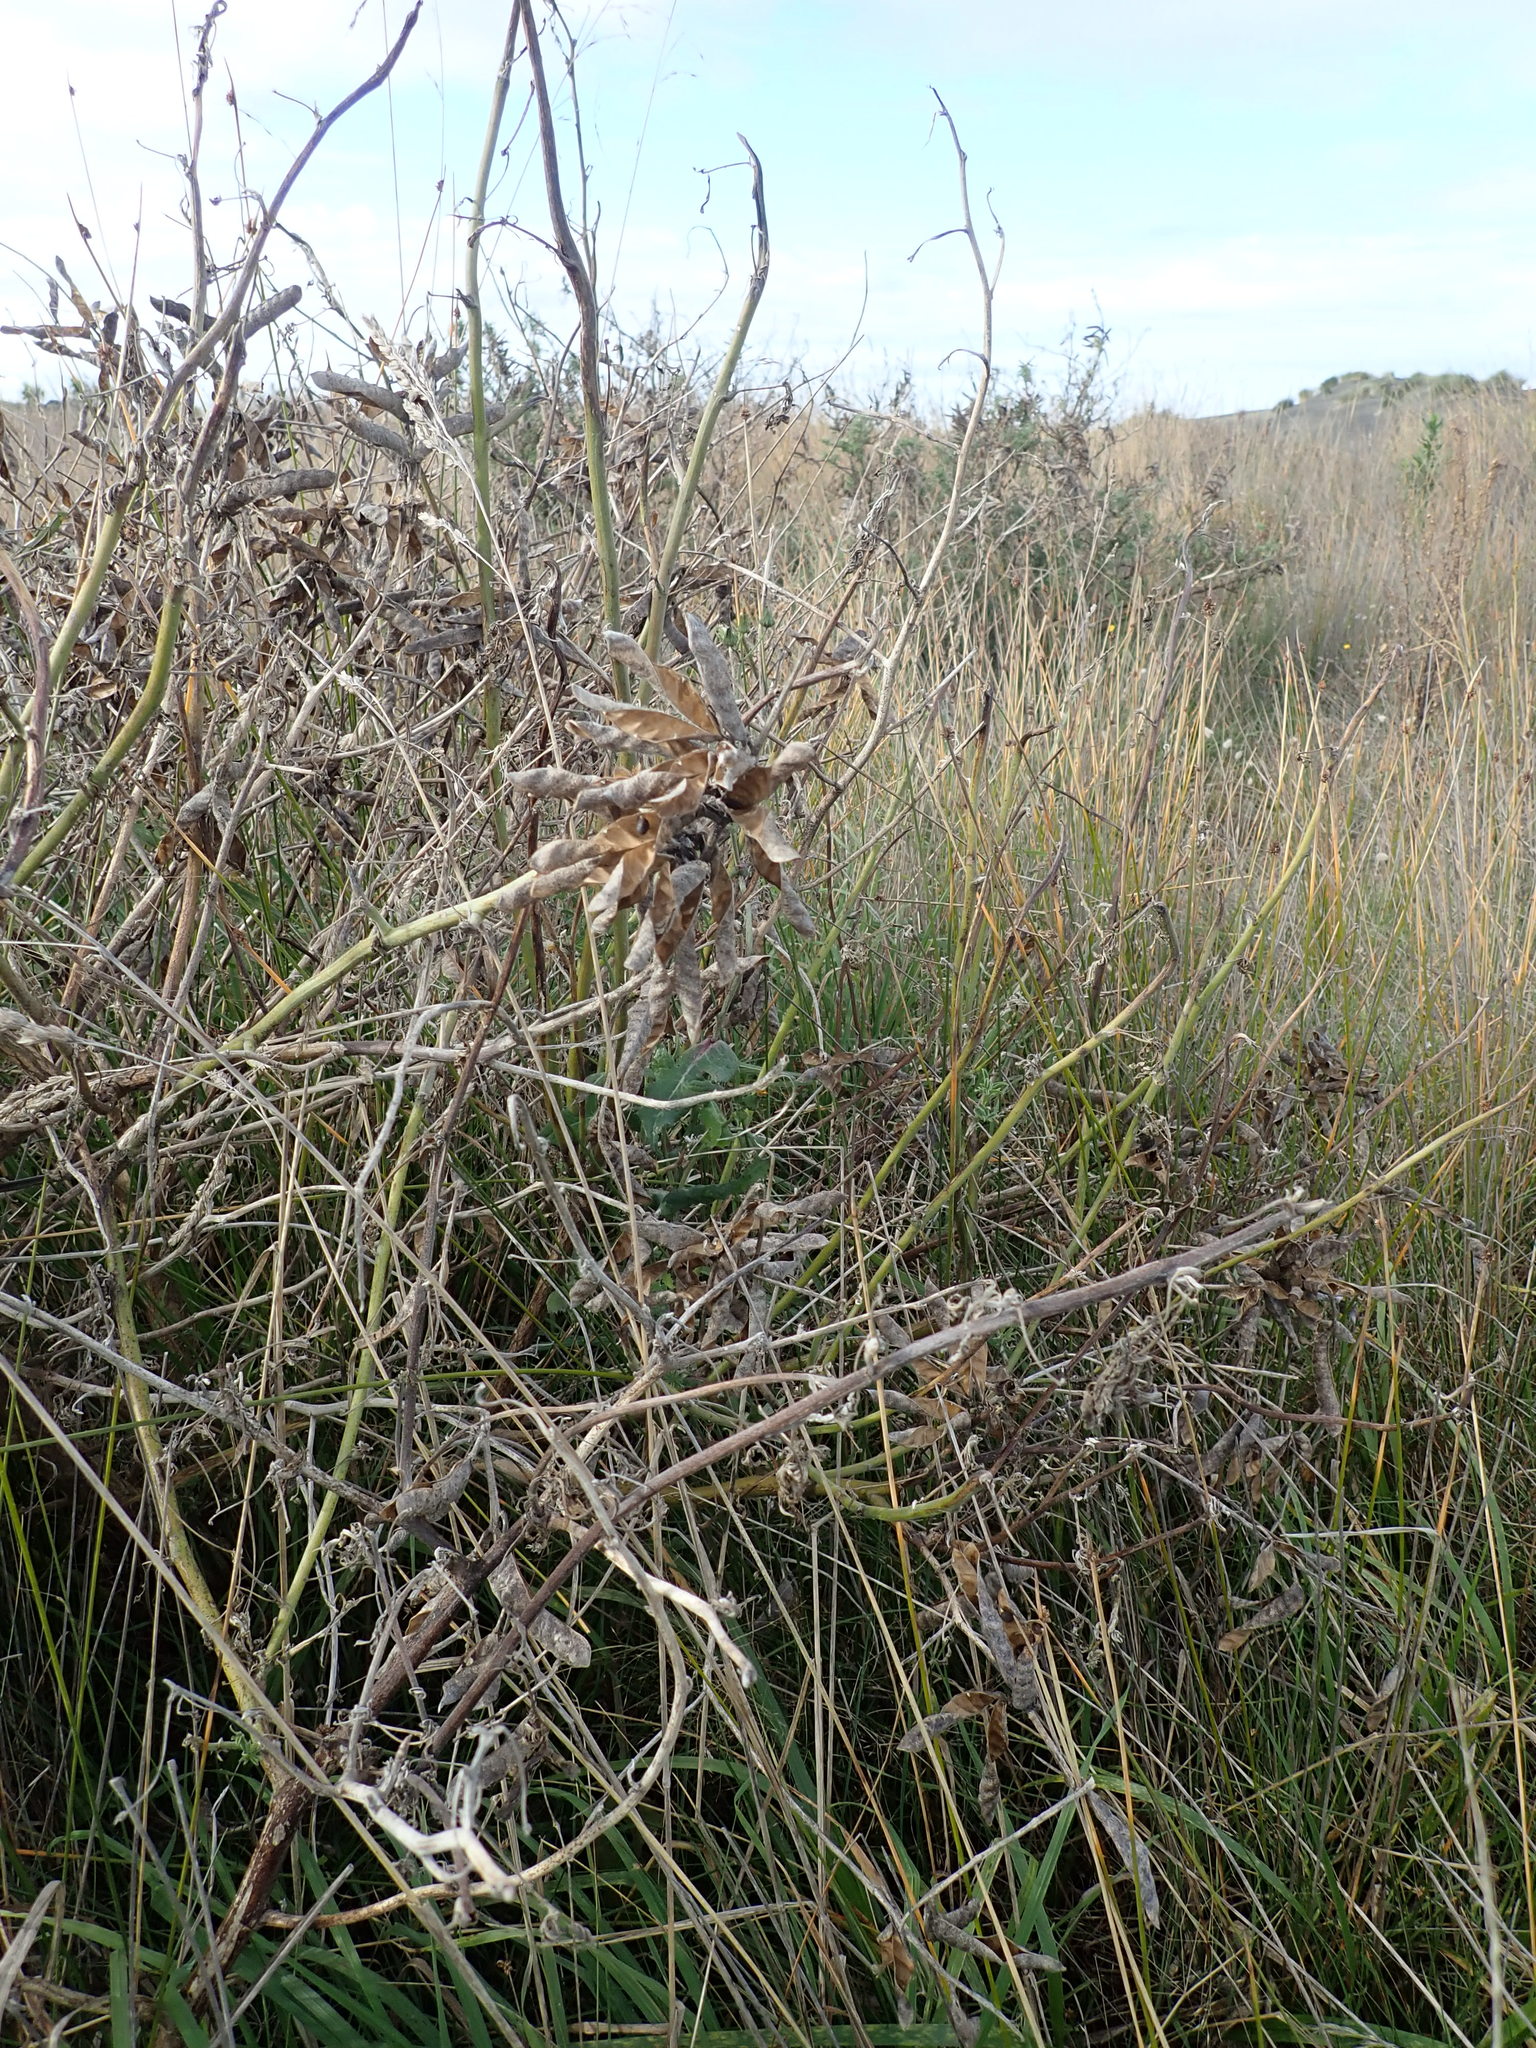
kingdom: Plantae
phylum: Tracheophyta
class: Magnoliopsida
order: Fabales
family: Fabaceae
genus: Lupinus
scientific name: Lupinus arboreus
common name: Yellow bush lupine
